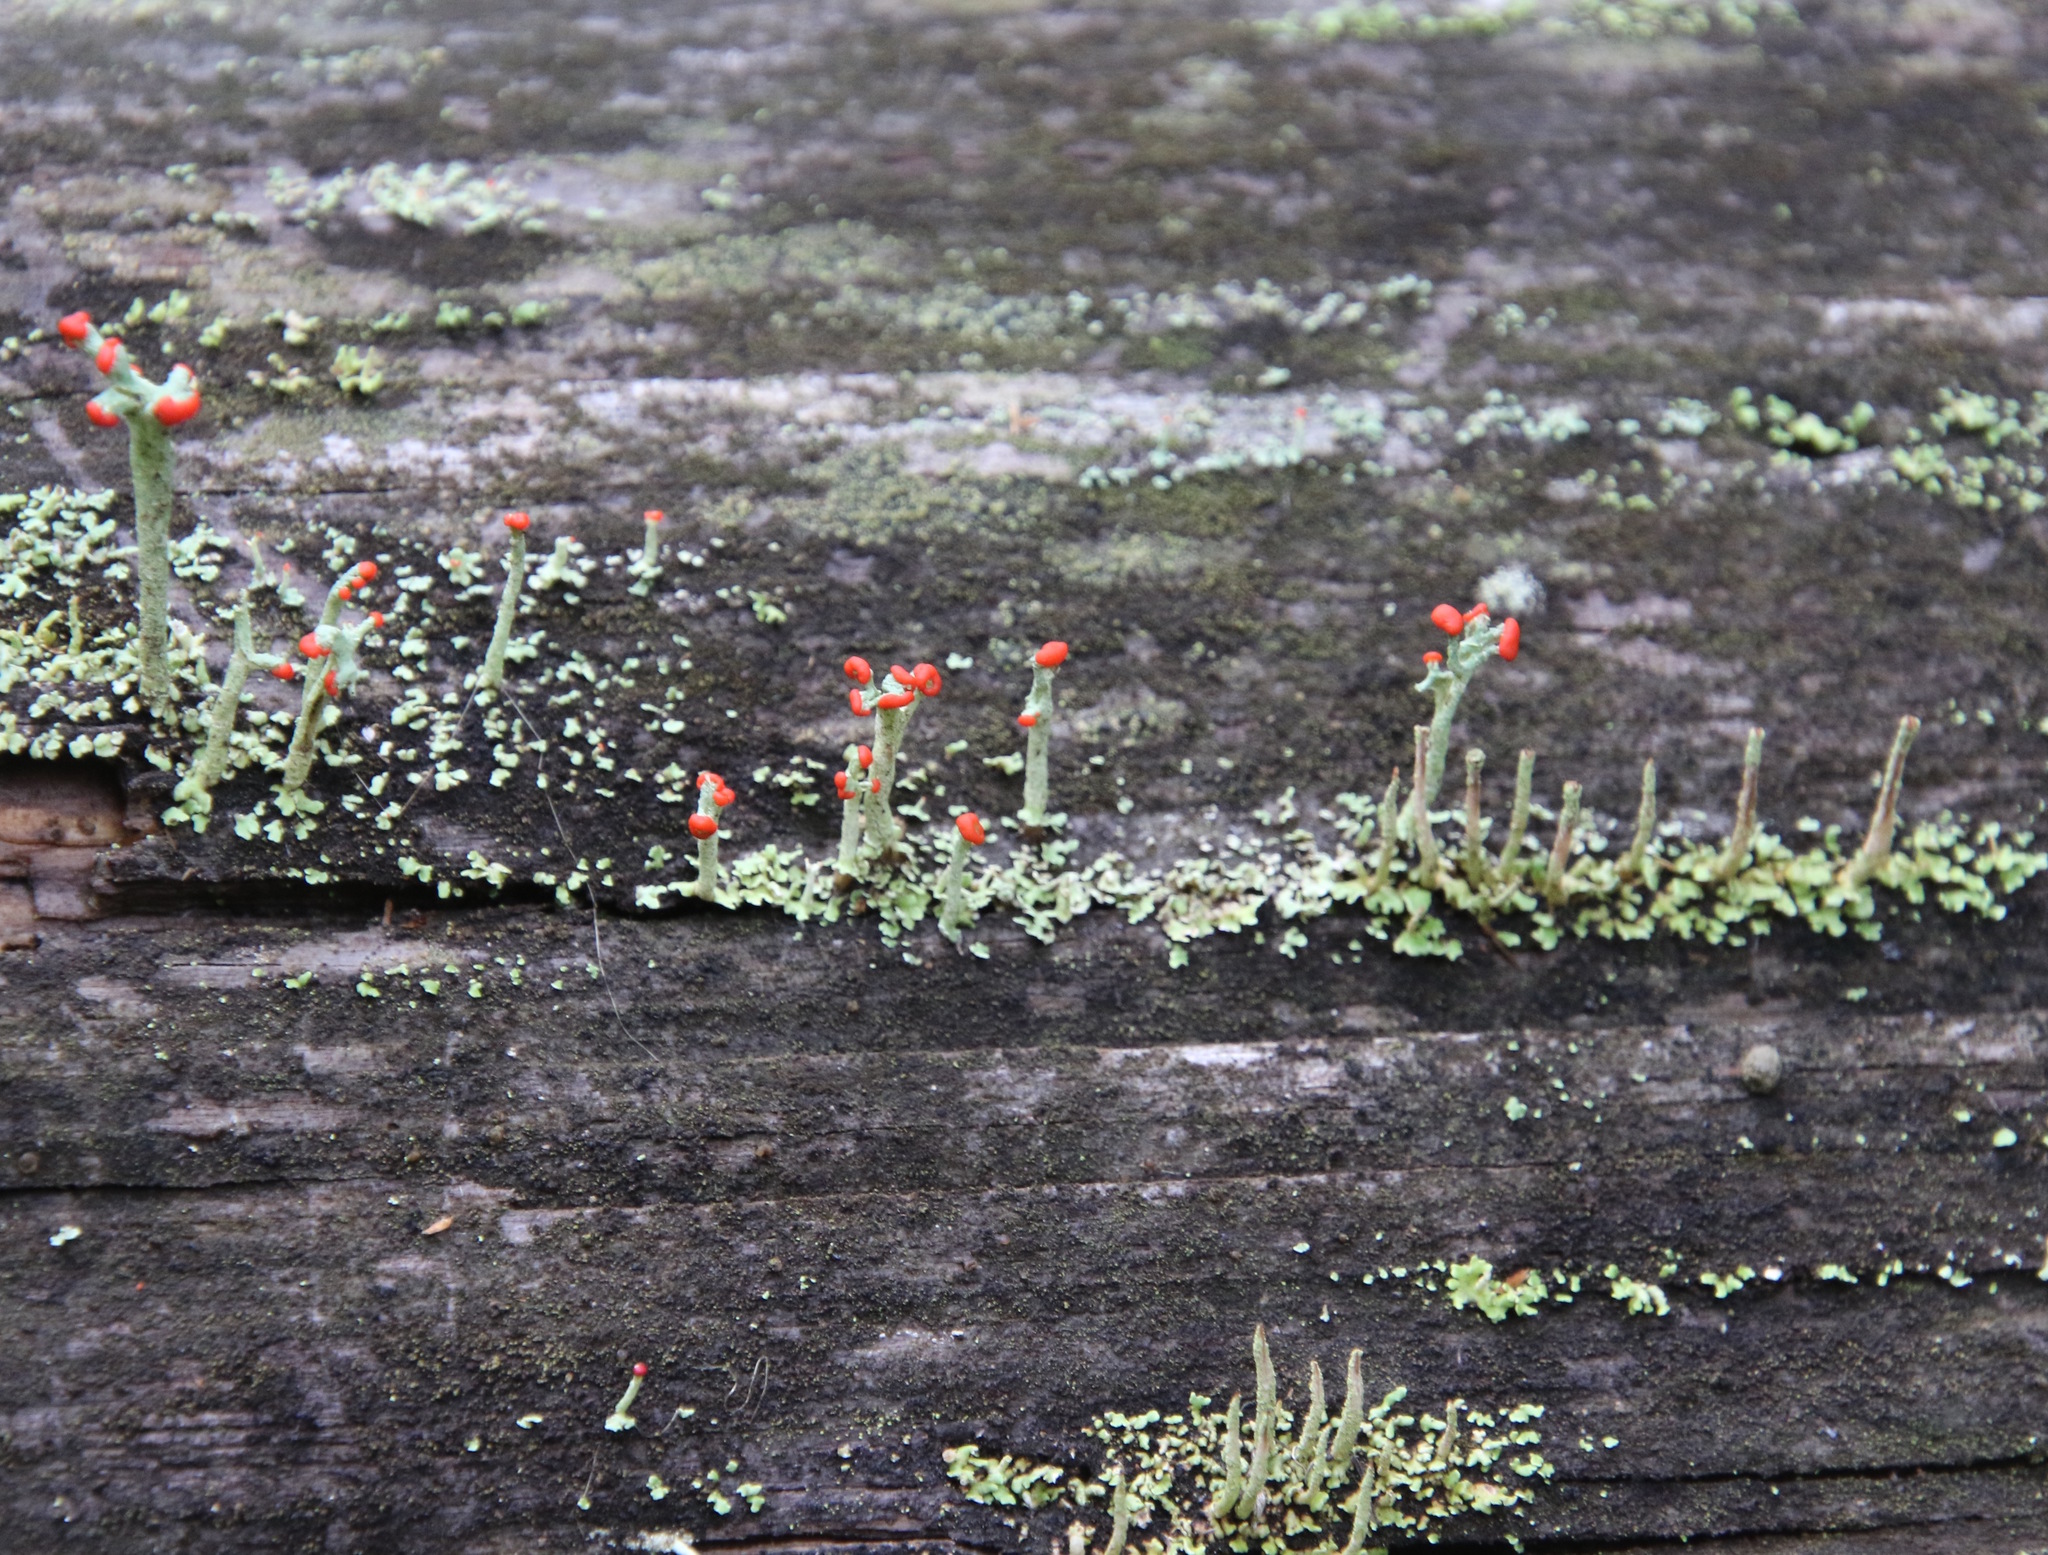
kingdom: Fungi
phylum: Ascomycota
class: Lecanoromycetes
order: Lecanorales
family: Cladoniaceae
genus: Cladonia
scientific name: Cladonia cristatella
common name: British soldier lichen
